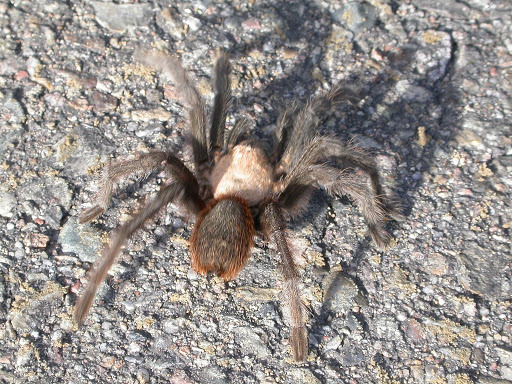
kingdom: Animalia
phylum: Arthropoda
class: Arachnida
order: Araneae
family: Theraphosidae
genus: Aphonopelma
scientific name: Aphonopelma hentzi
